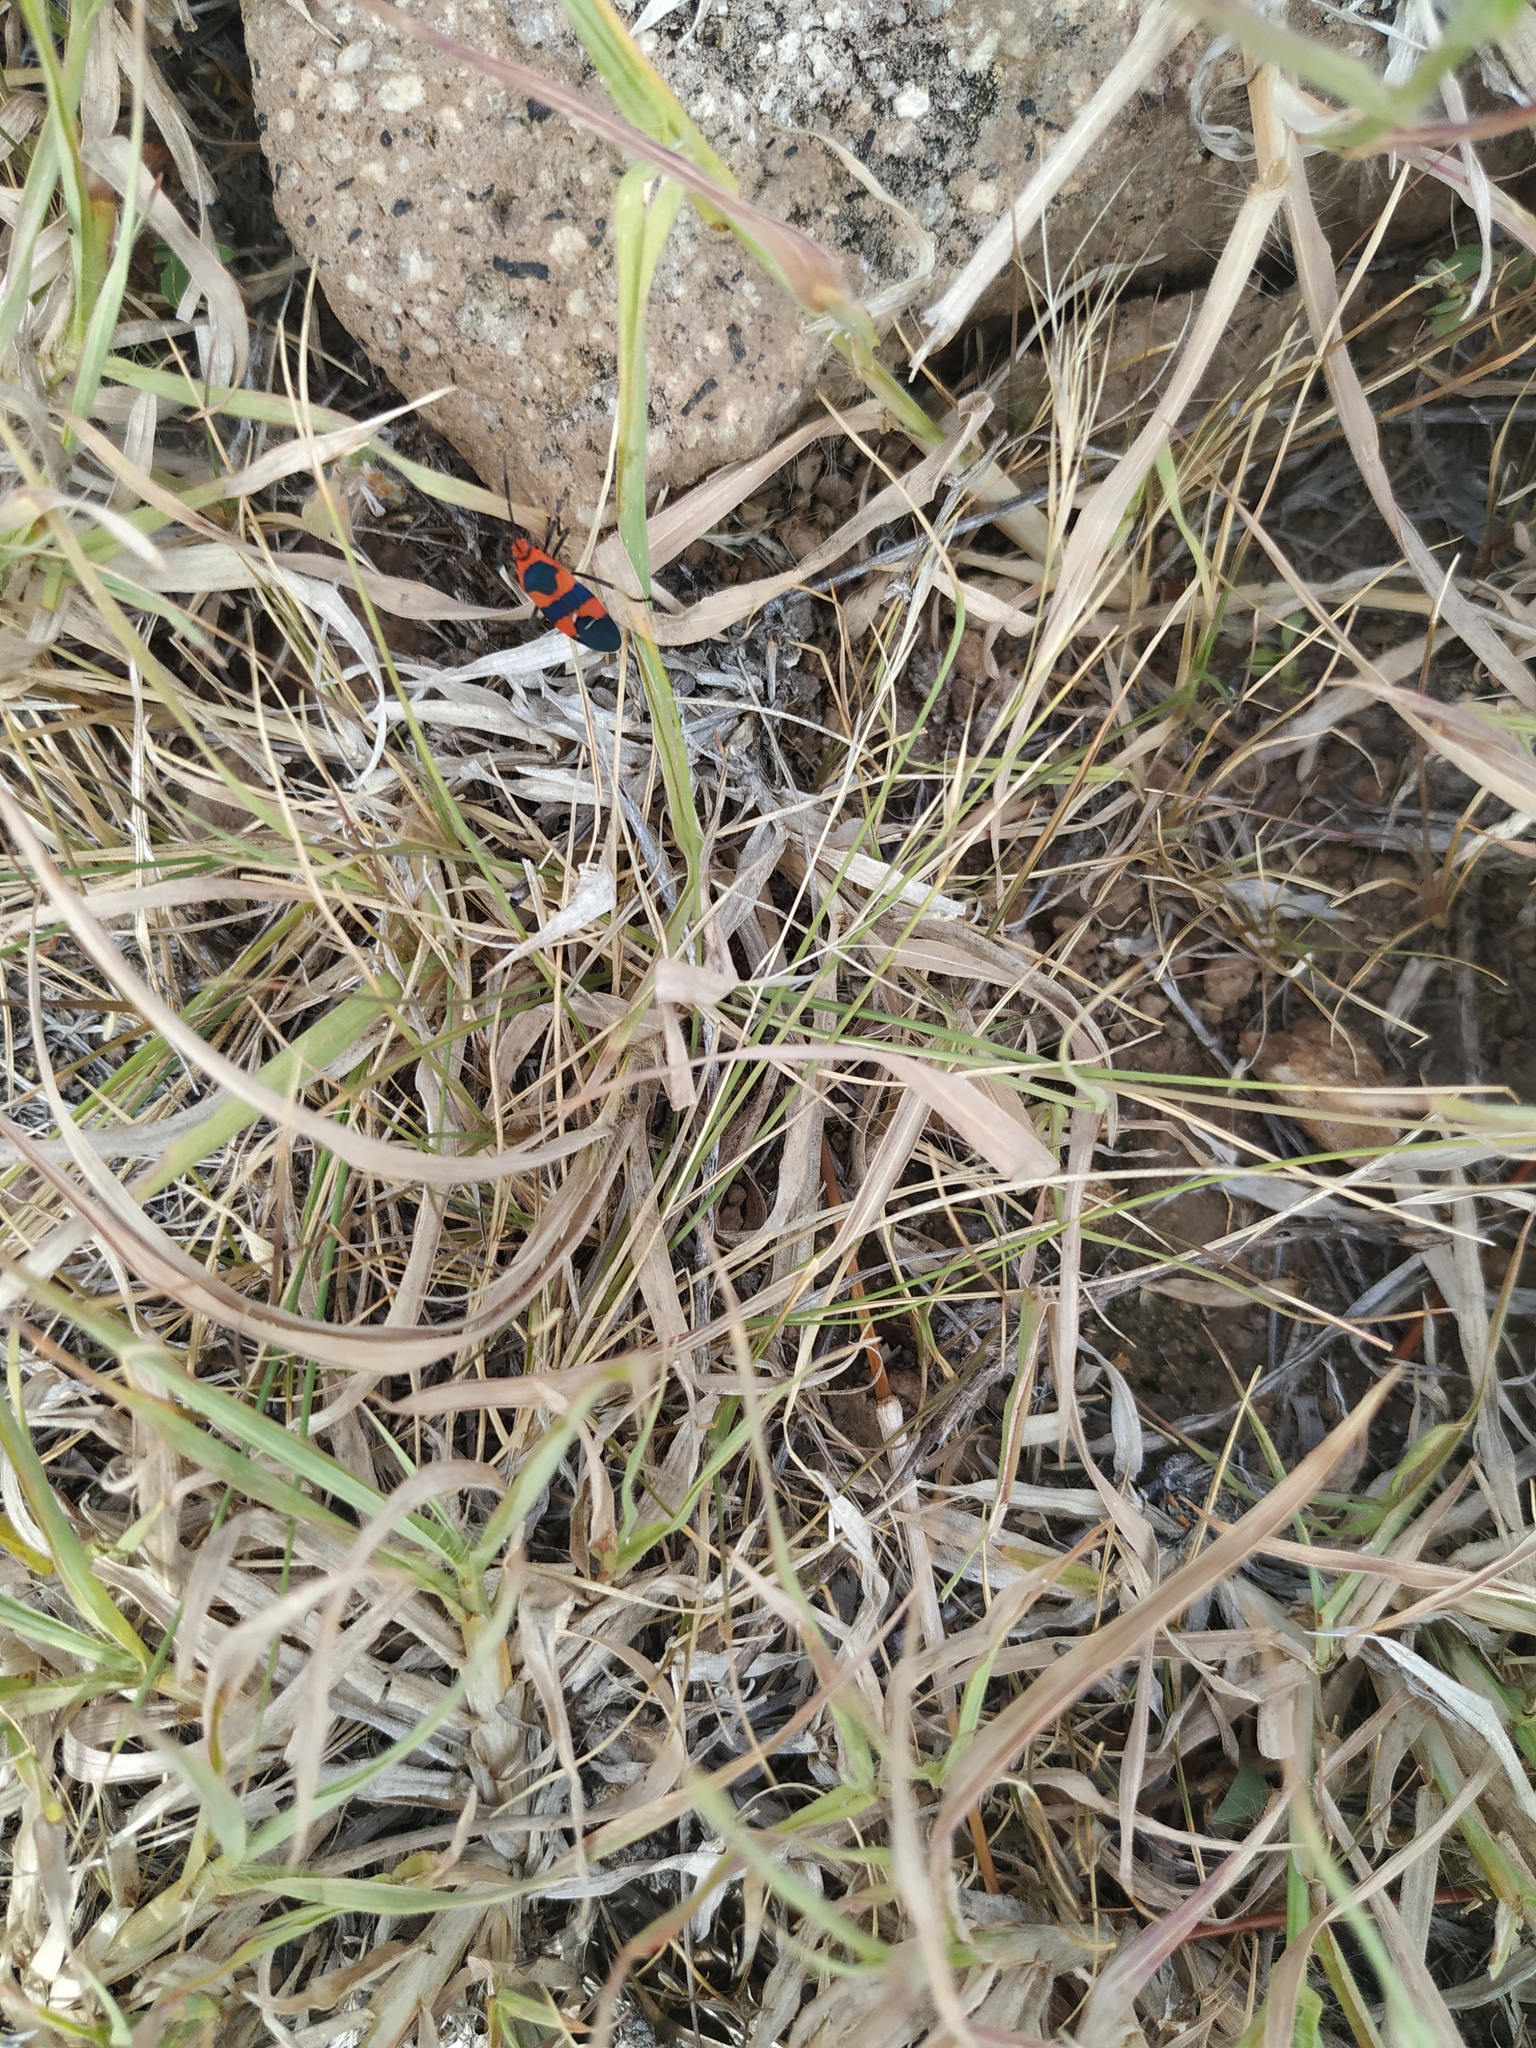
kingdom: Animalia
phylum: Arthropoda
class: Insecta
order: Hemiptera
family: Lygaeidae
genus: Oncopeltus
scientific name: Oncopeltus aulicus
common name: Lygaeid bug
